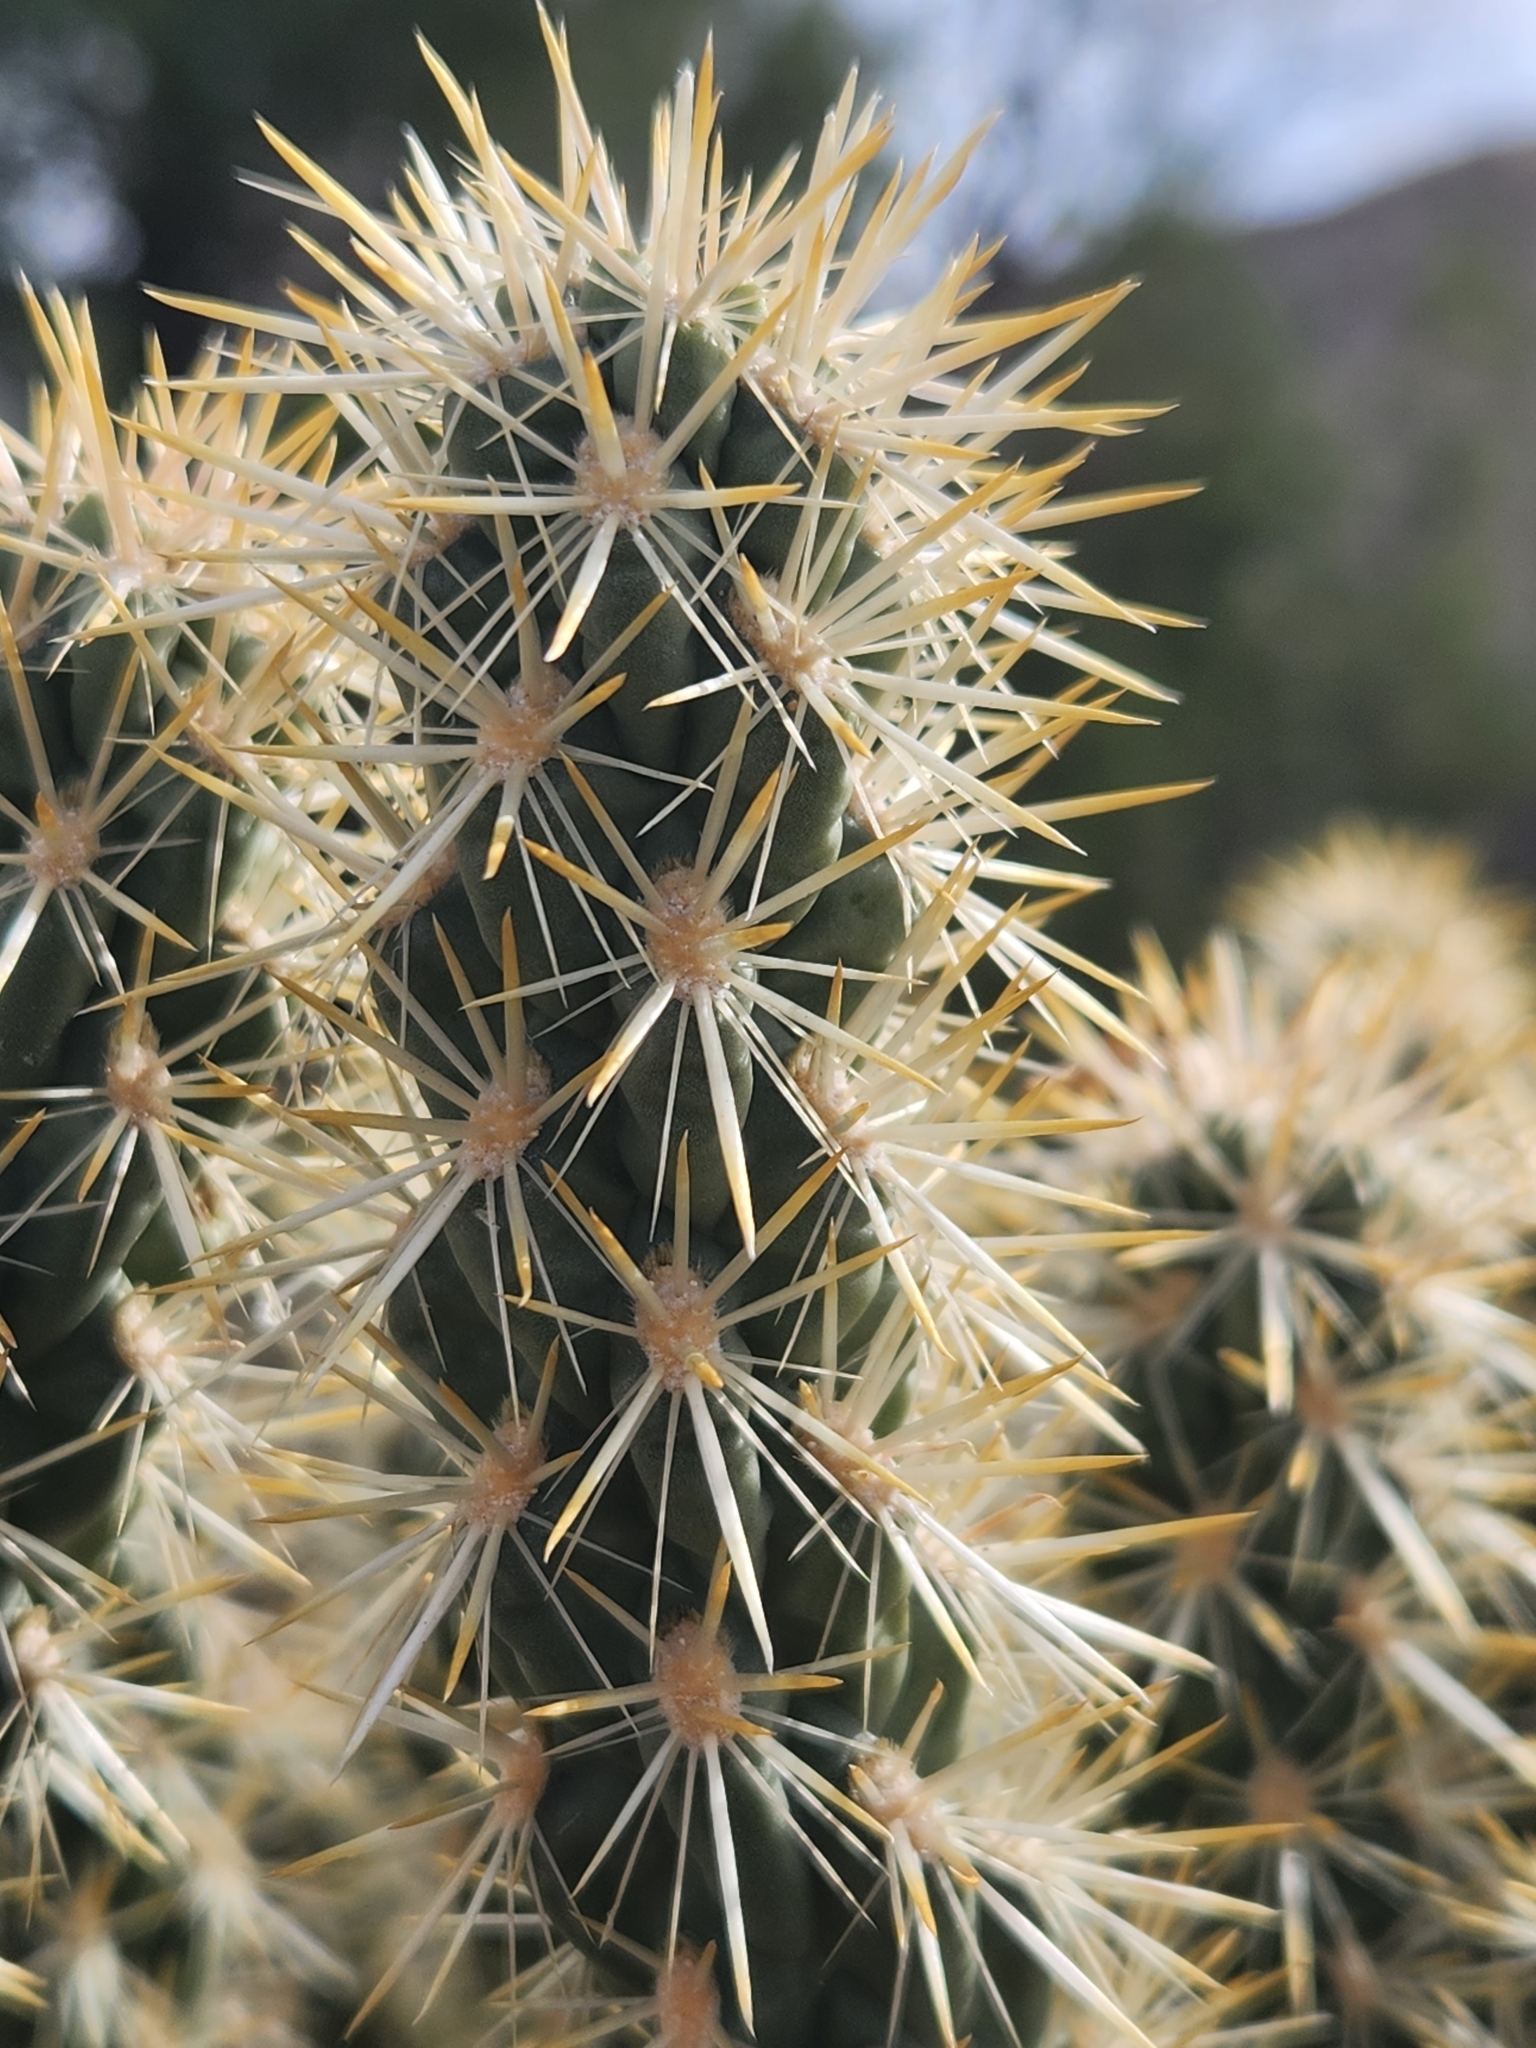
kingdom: Plantae
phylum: Tracheophyta
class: Magnoliopsida
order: Caryophyllales
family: Cactaceae
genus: Cylindropuntia
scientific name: Cylindropuntia echinocarpa
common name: Ground cholla
